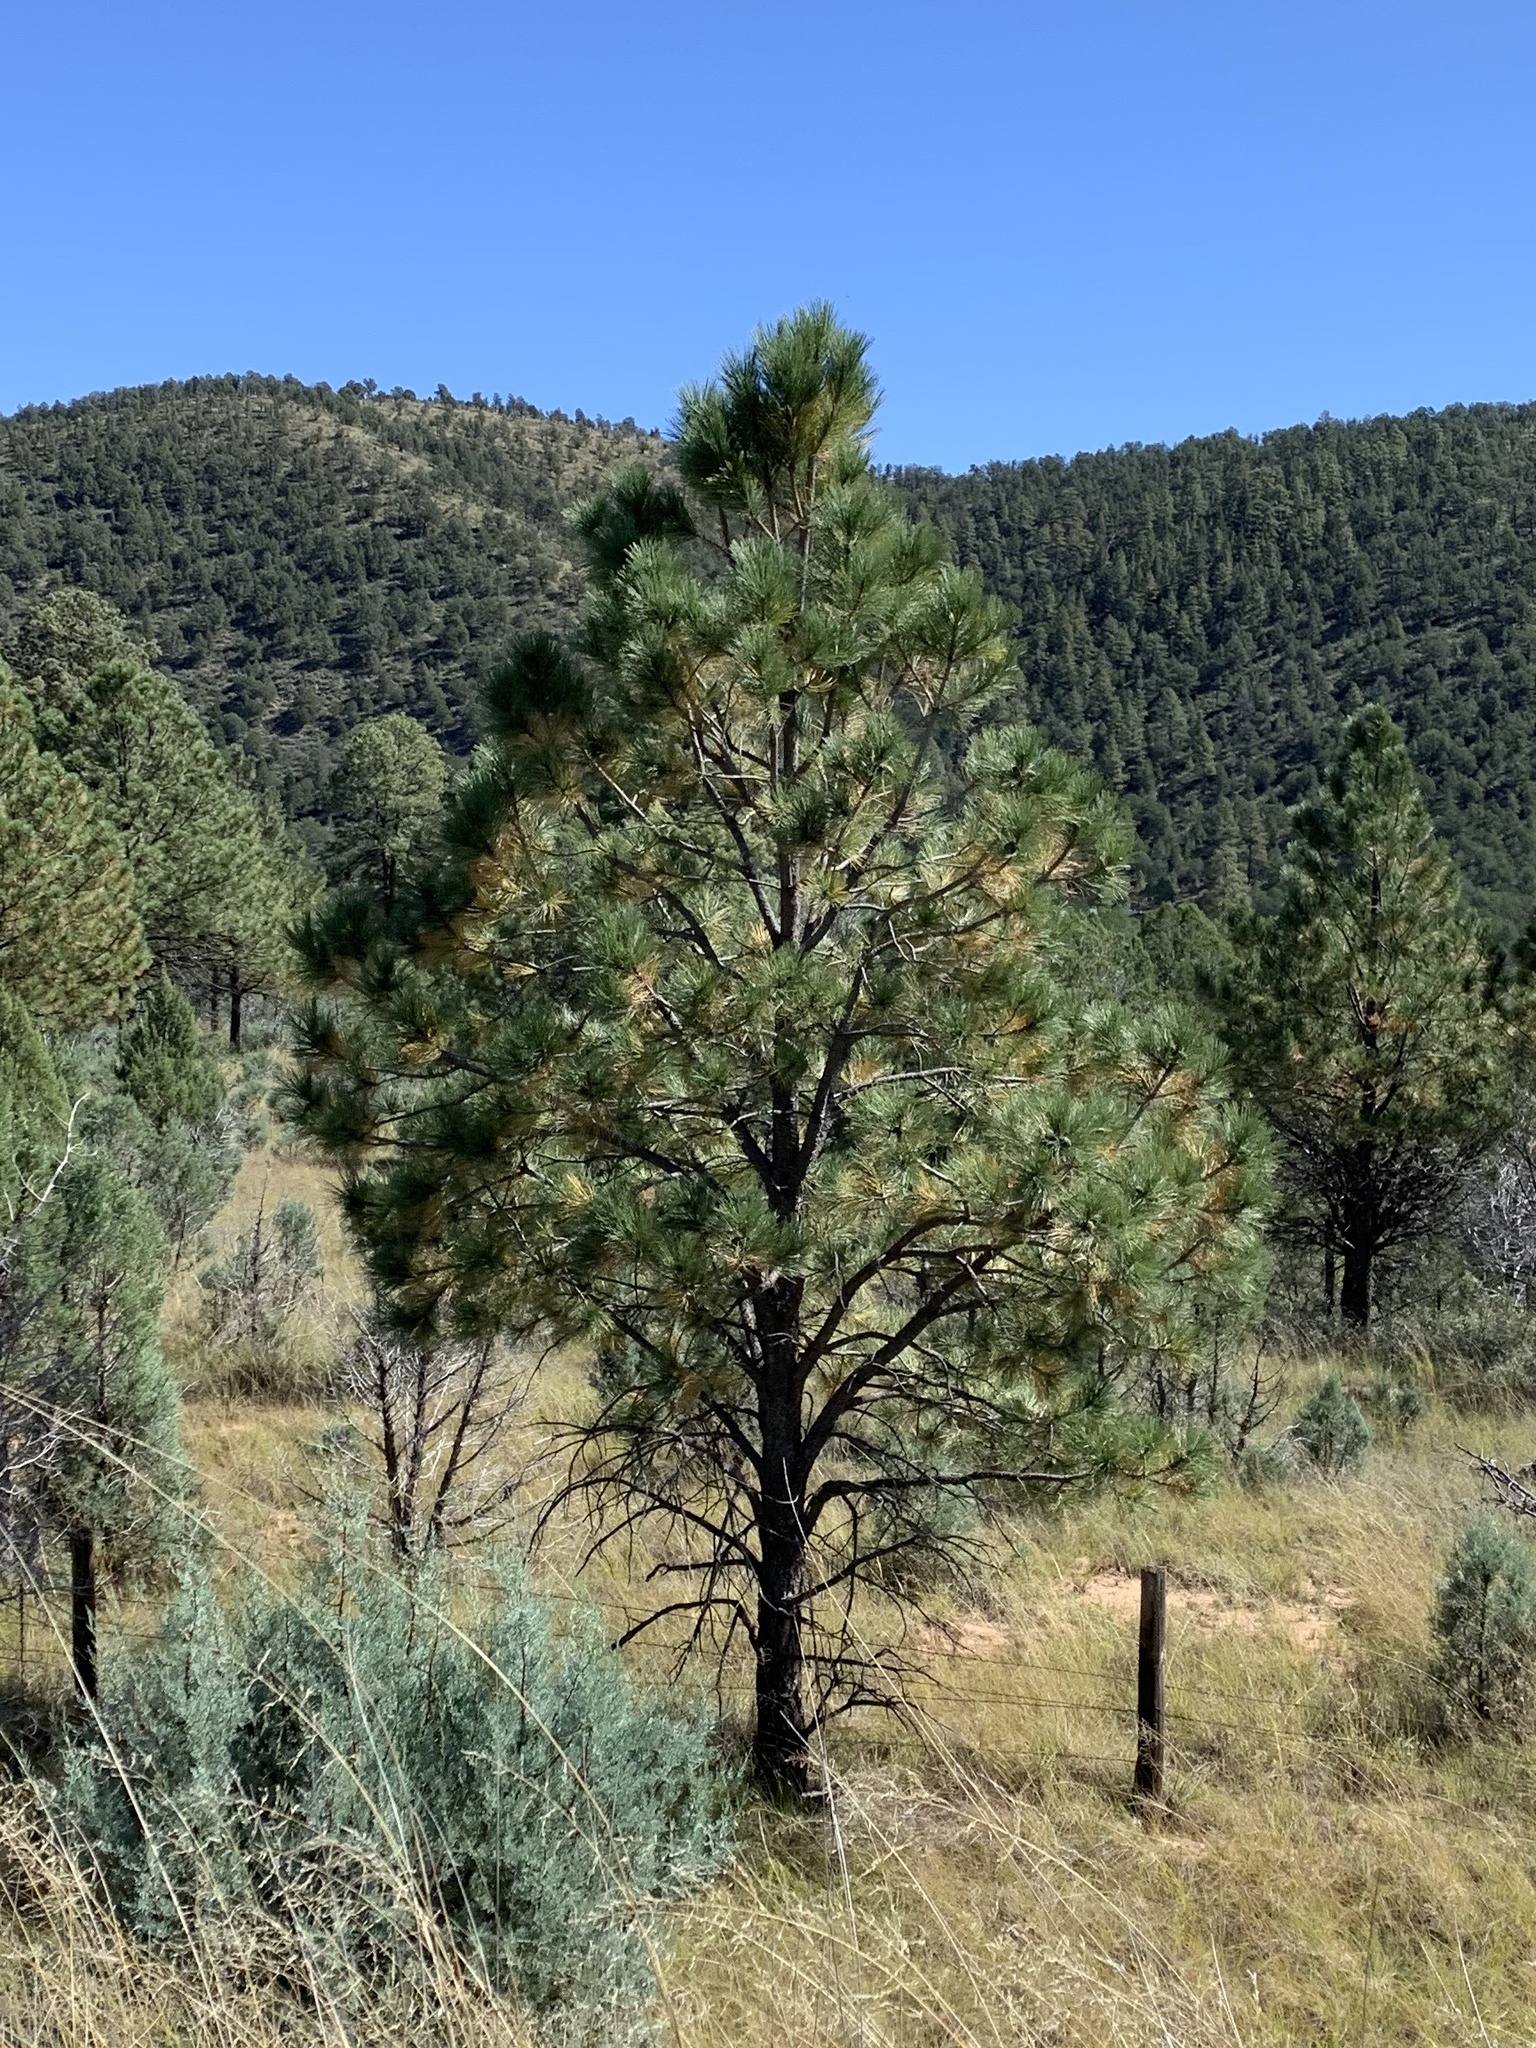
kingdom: Plantae
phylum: Tracheophyta
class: Pinopsida
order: Pinales
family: Pinaceae
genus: Pinus
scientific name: Pinus ponderosa
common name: Western yellow-pine
